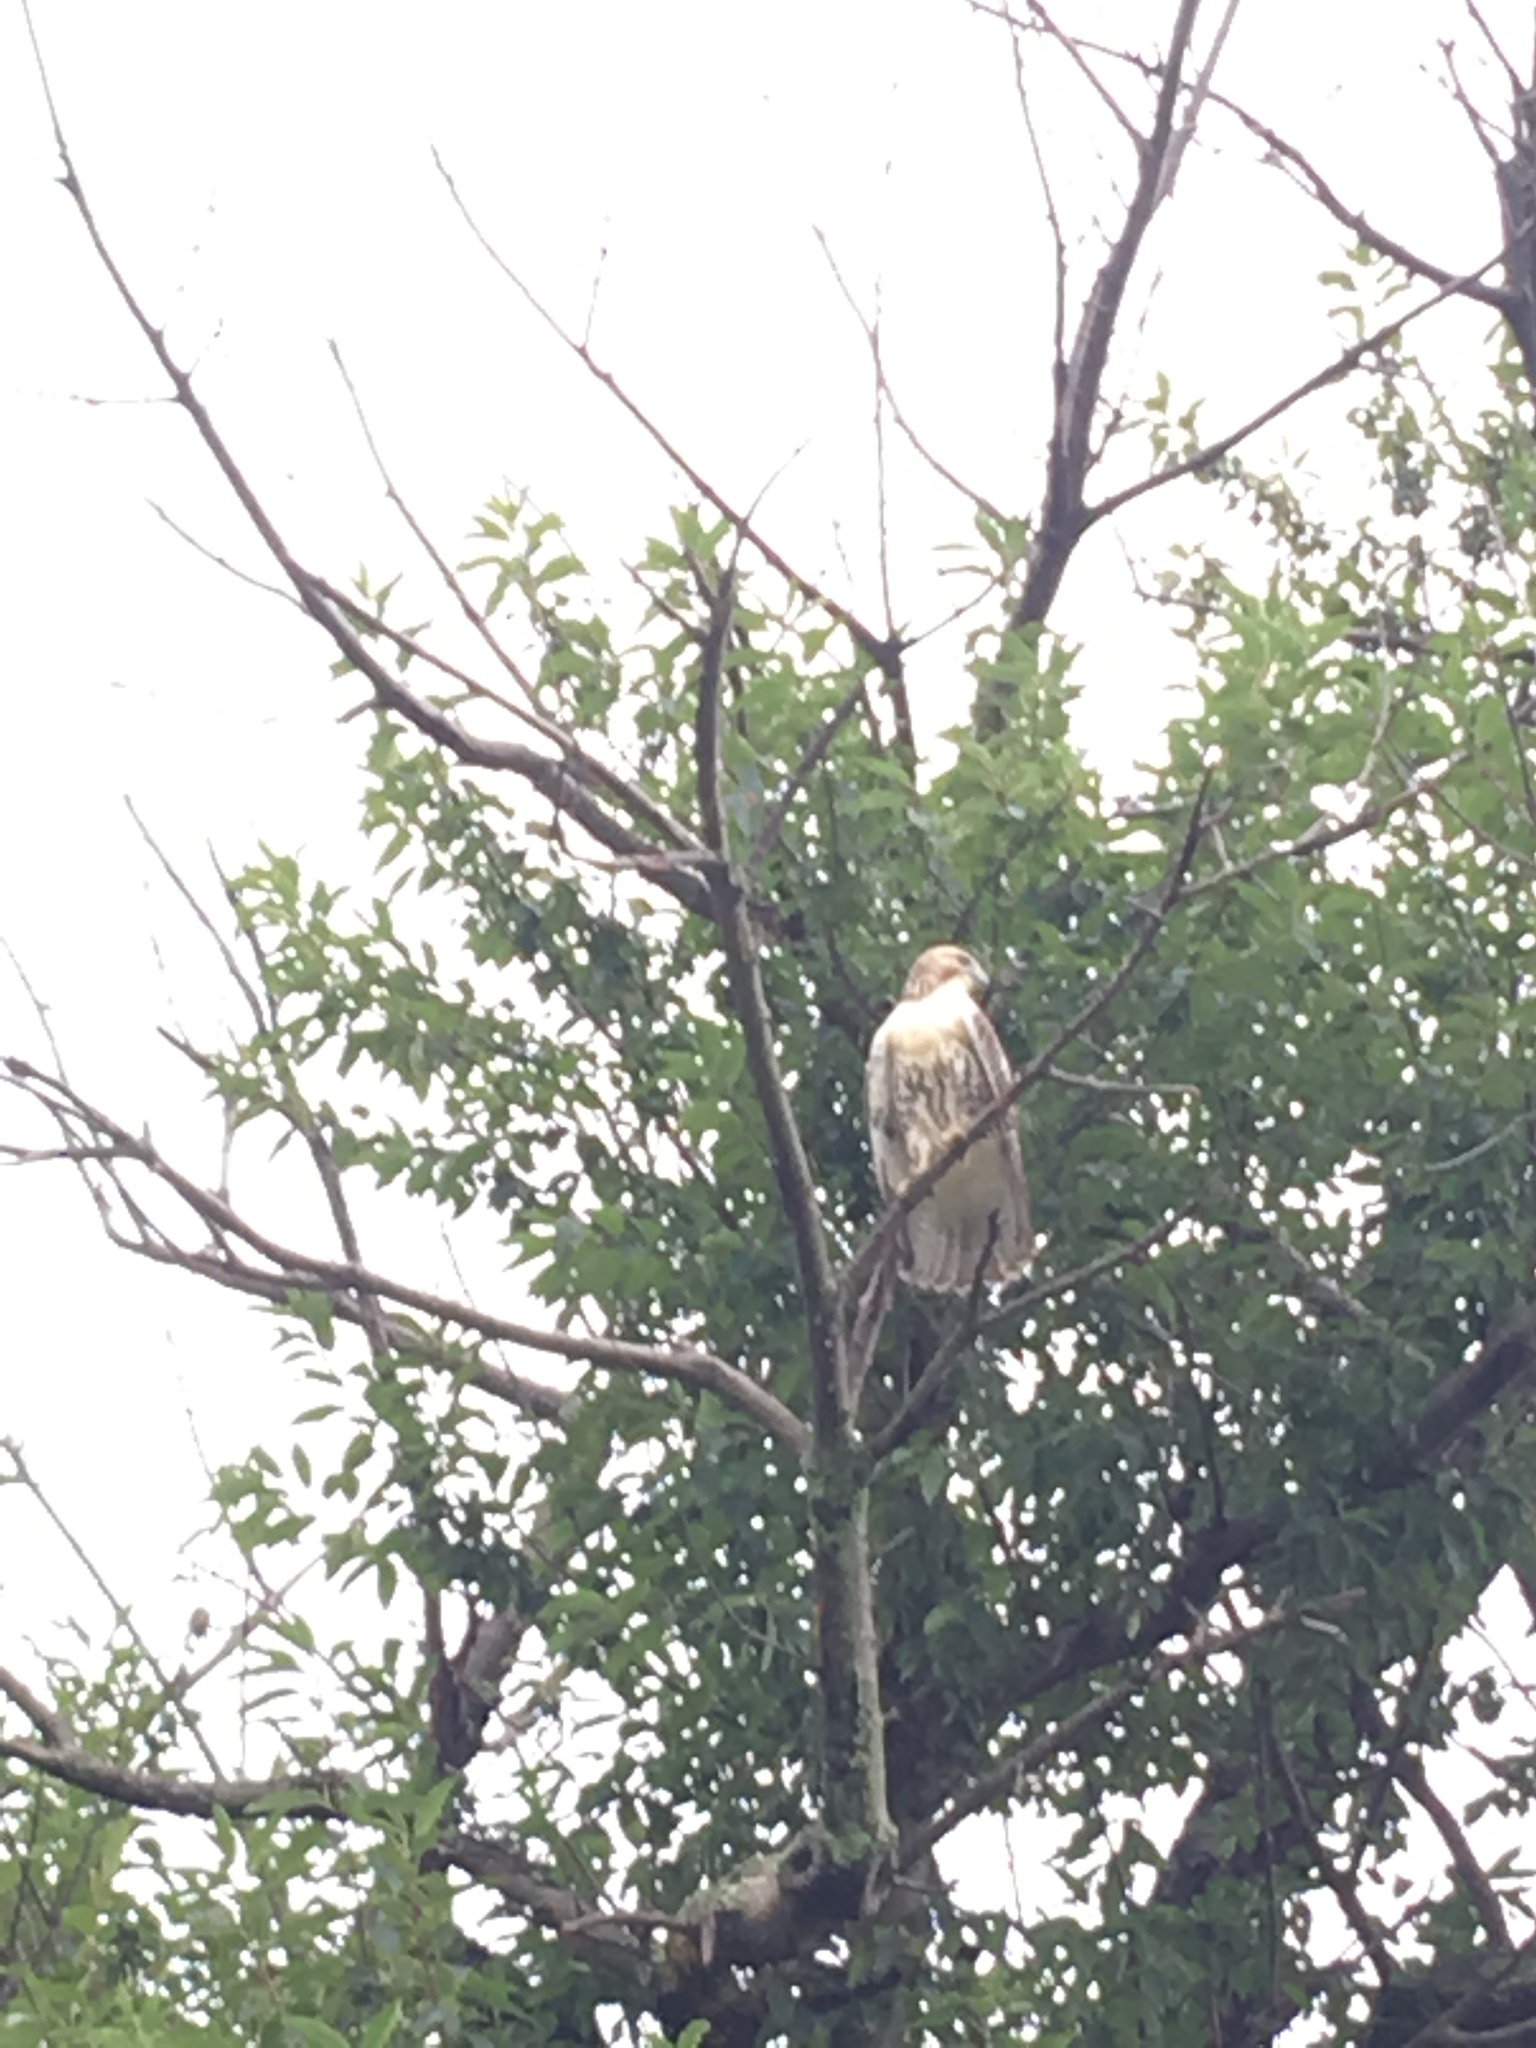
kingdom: Animalia
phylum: Chordata
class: Aves
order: Accipitriformes
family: Accipitridae
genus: Buteo
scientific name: Buteo jamaicensis
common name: Red-tailed hawk
